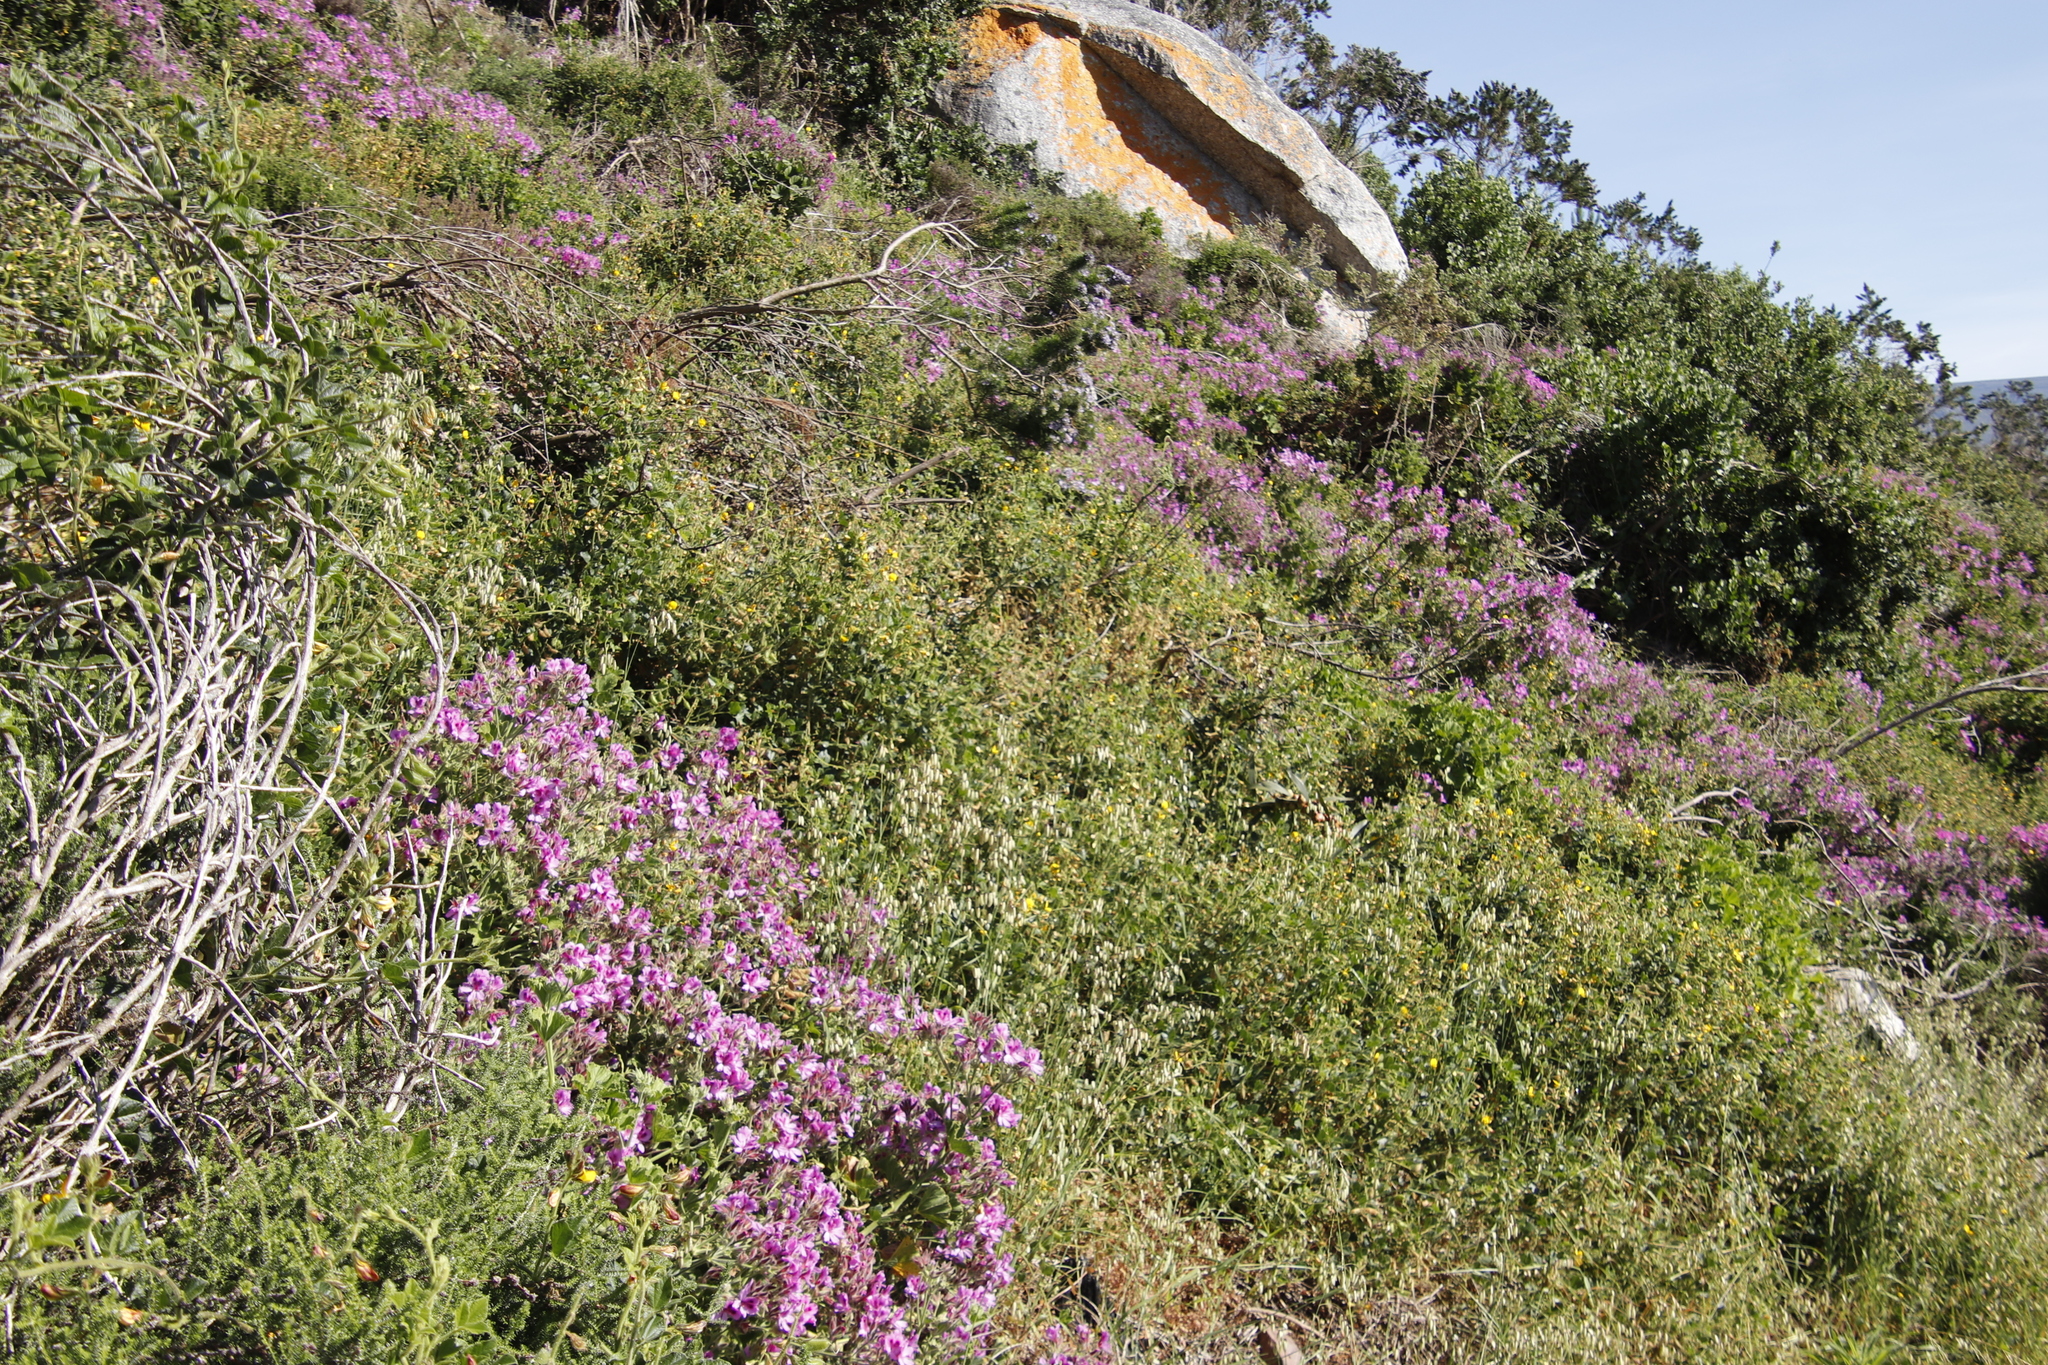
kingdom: Plantae
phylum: Tracheophyta
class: Magnoliopsida
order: Fabales
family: Fabaceae
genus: Bolusafra
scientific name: Bolusafra bituminosa
